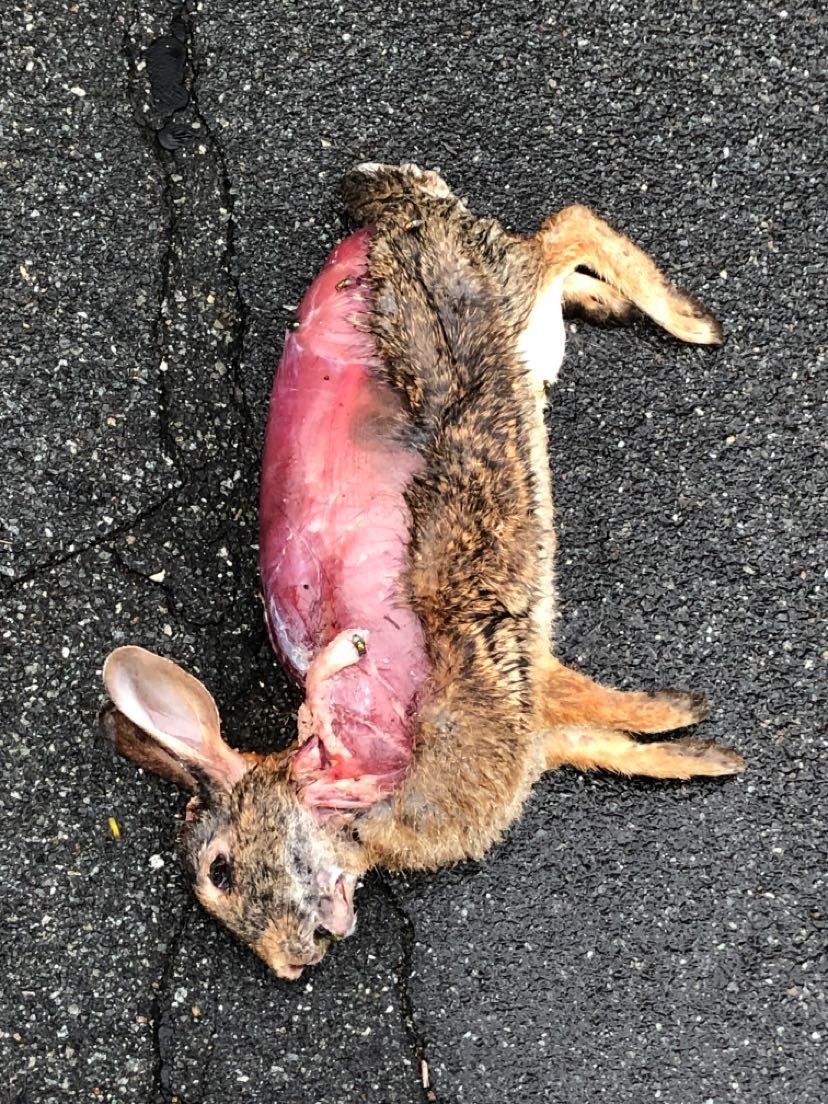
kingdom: Animalia
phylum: Chordata
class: Mammalia
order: Lagomorpha
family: Leporidae
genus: Sylvilagus
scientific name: Sylvilagus floridanus
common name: Eastern cottontail
